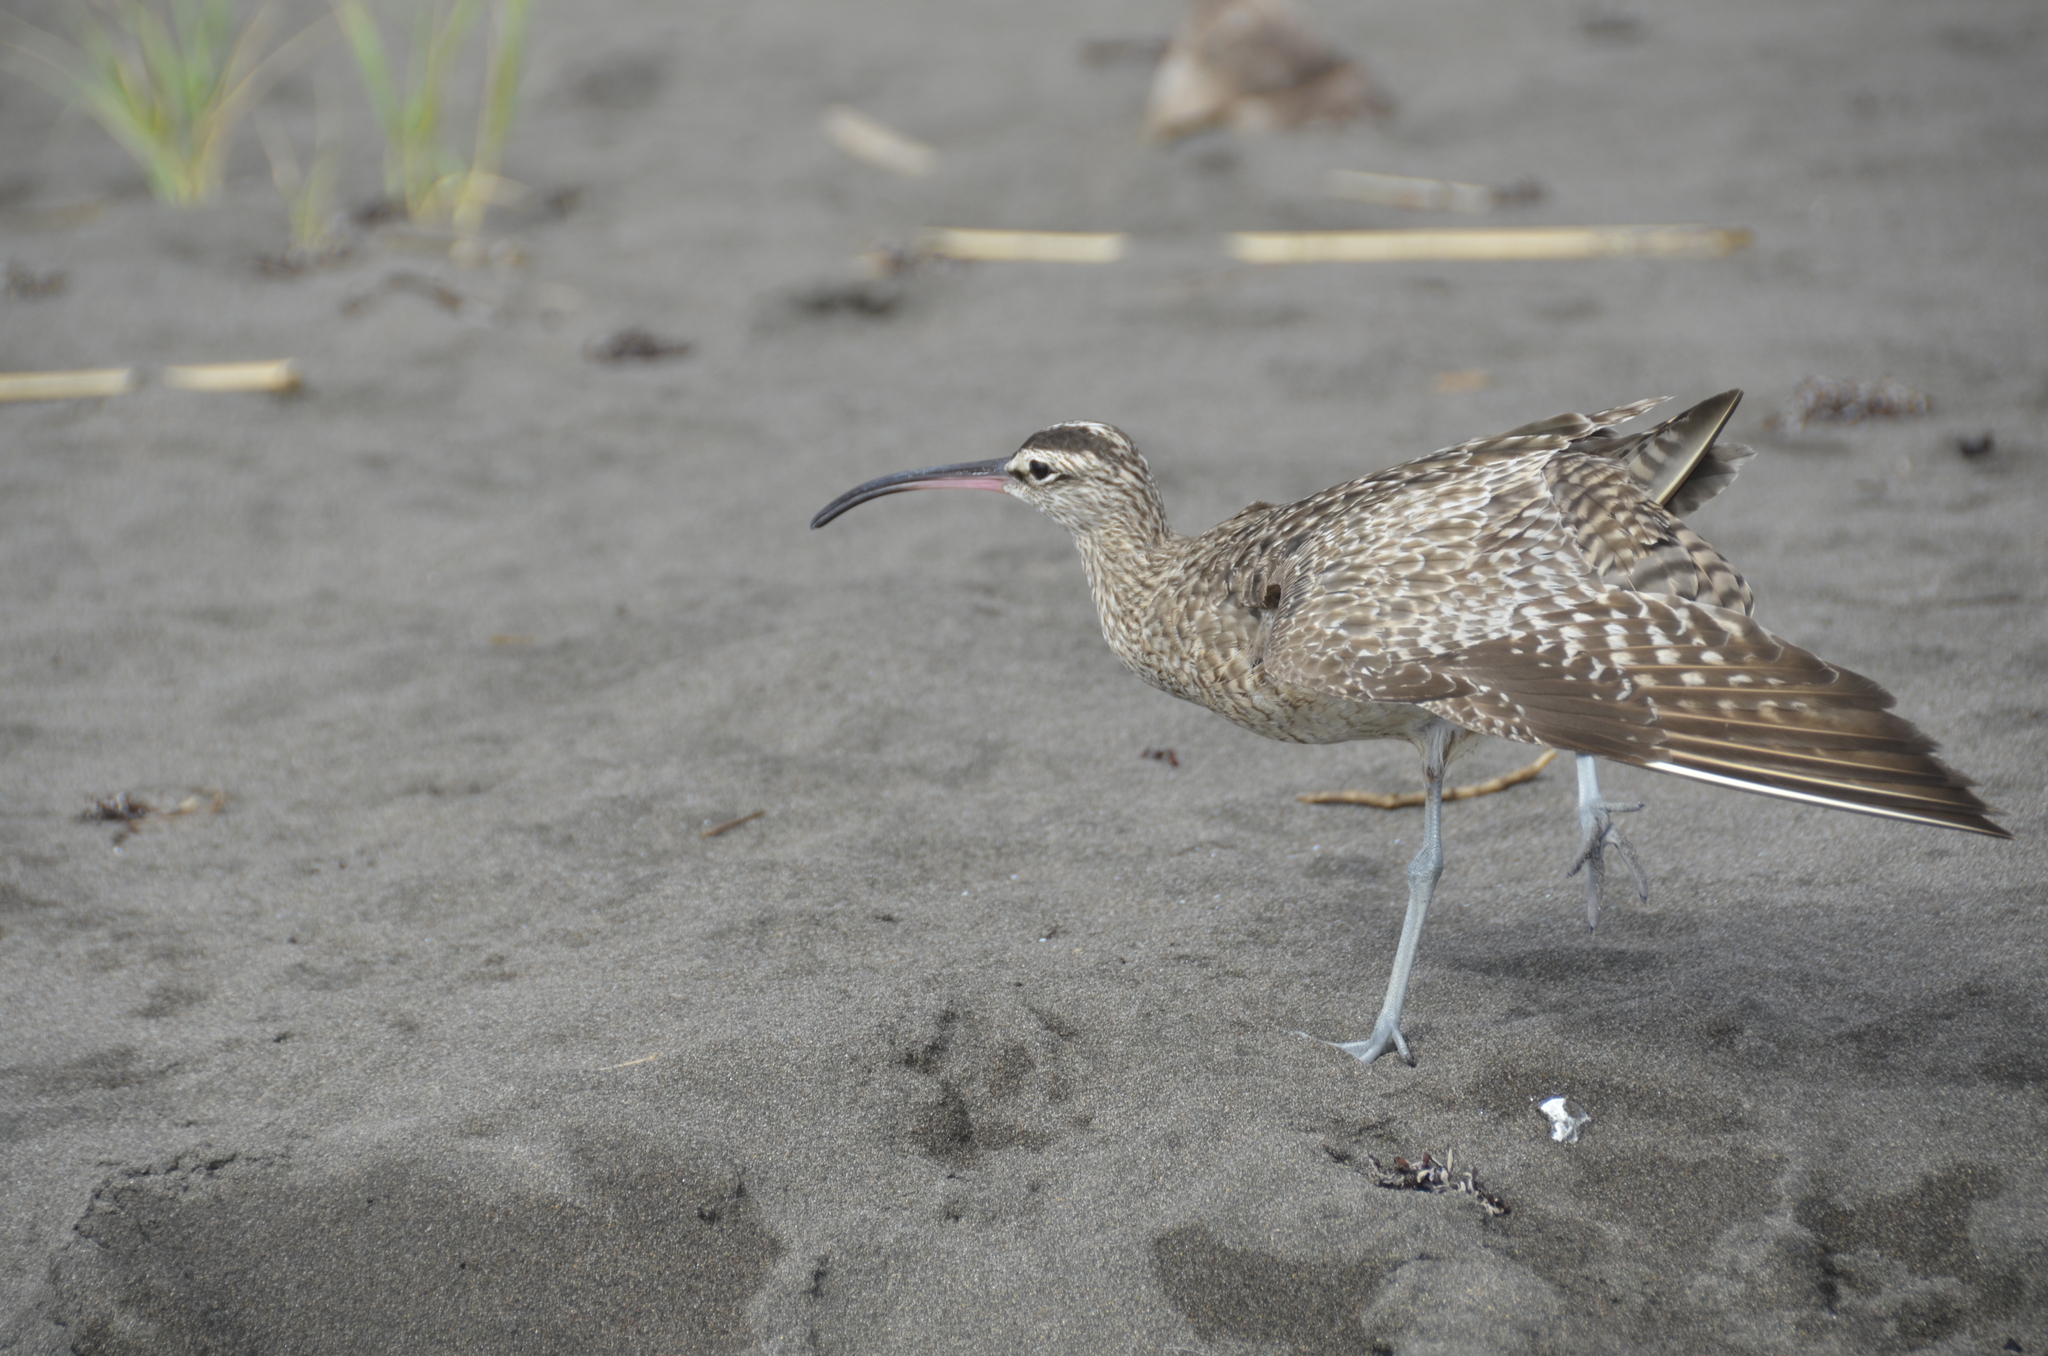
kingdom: Animalia
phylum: Chordata
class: Aves
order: Charadriiformes
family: Scolopacidae
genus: Numenius
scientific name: Numenius phaeopus
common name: Whimbrel
